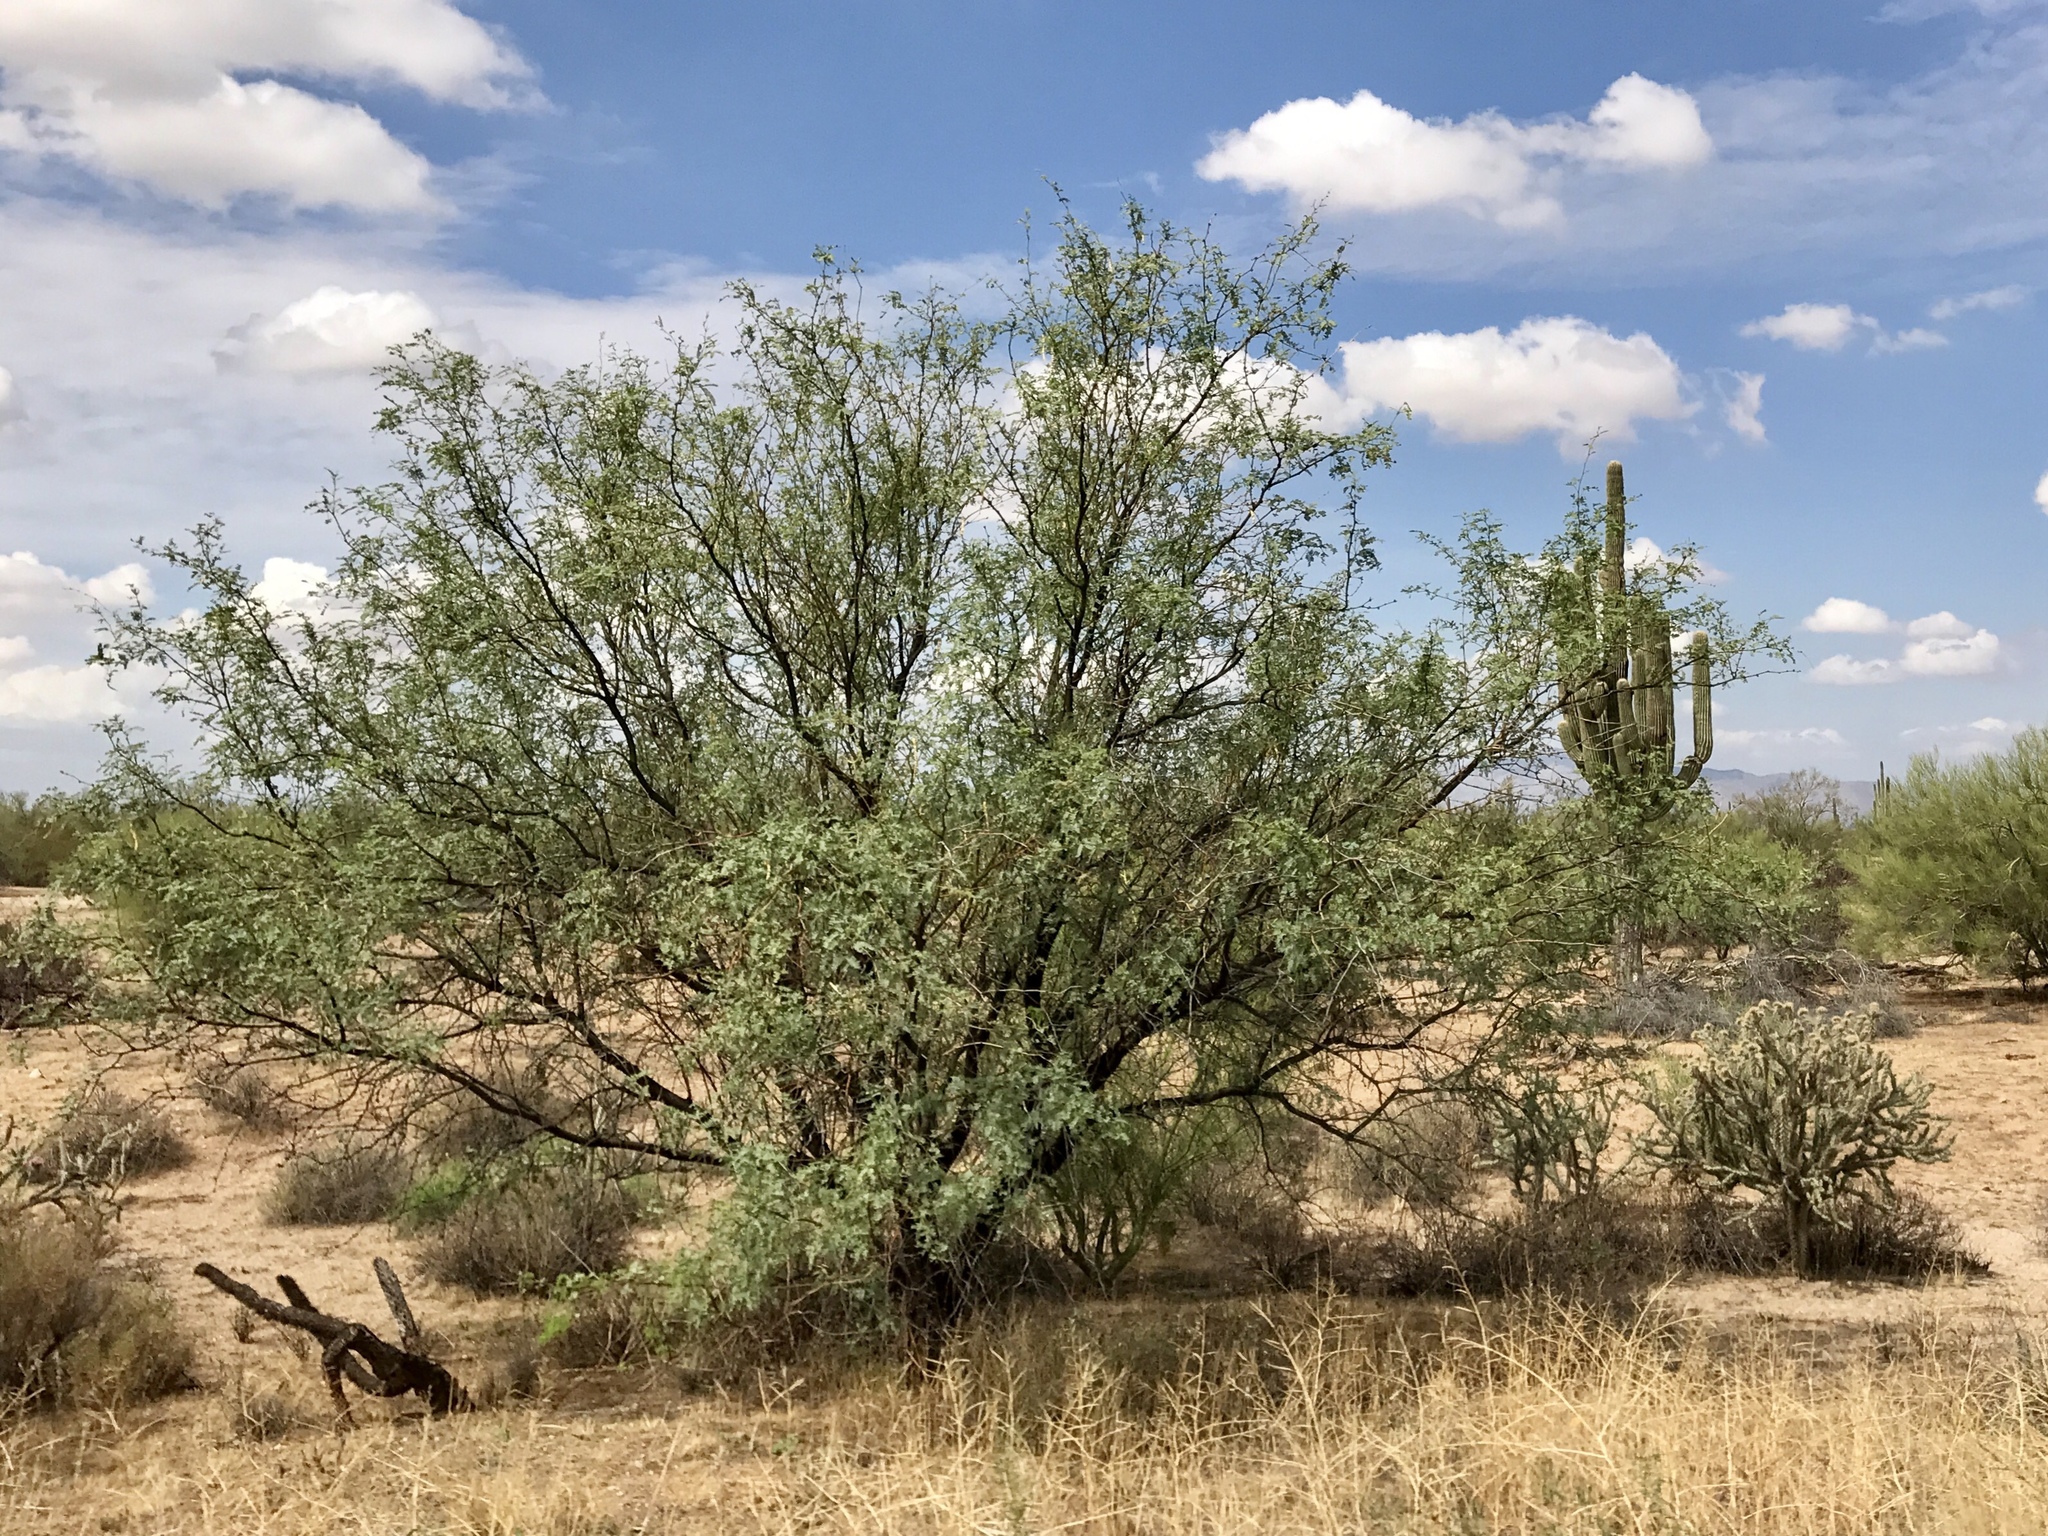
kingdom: Plantae
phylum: Tracheophyta
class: Magnoliopsida
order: Fabales
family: Fabaceae
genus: Prosopis
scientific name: Prosopis velutina
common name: Velvet mesquite
